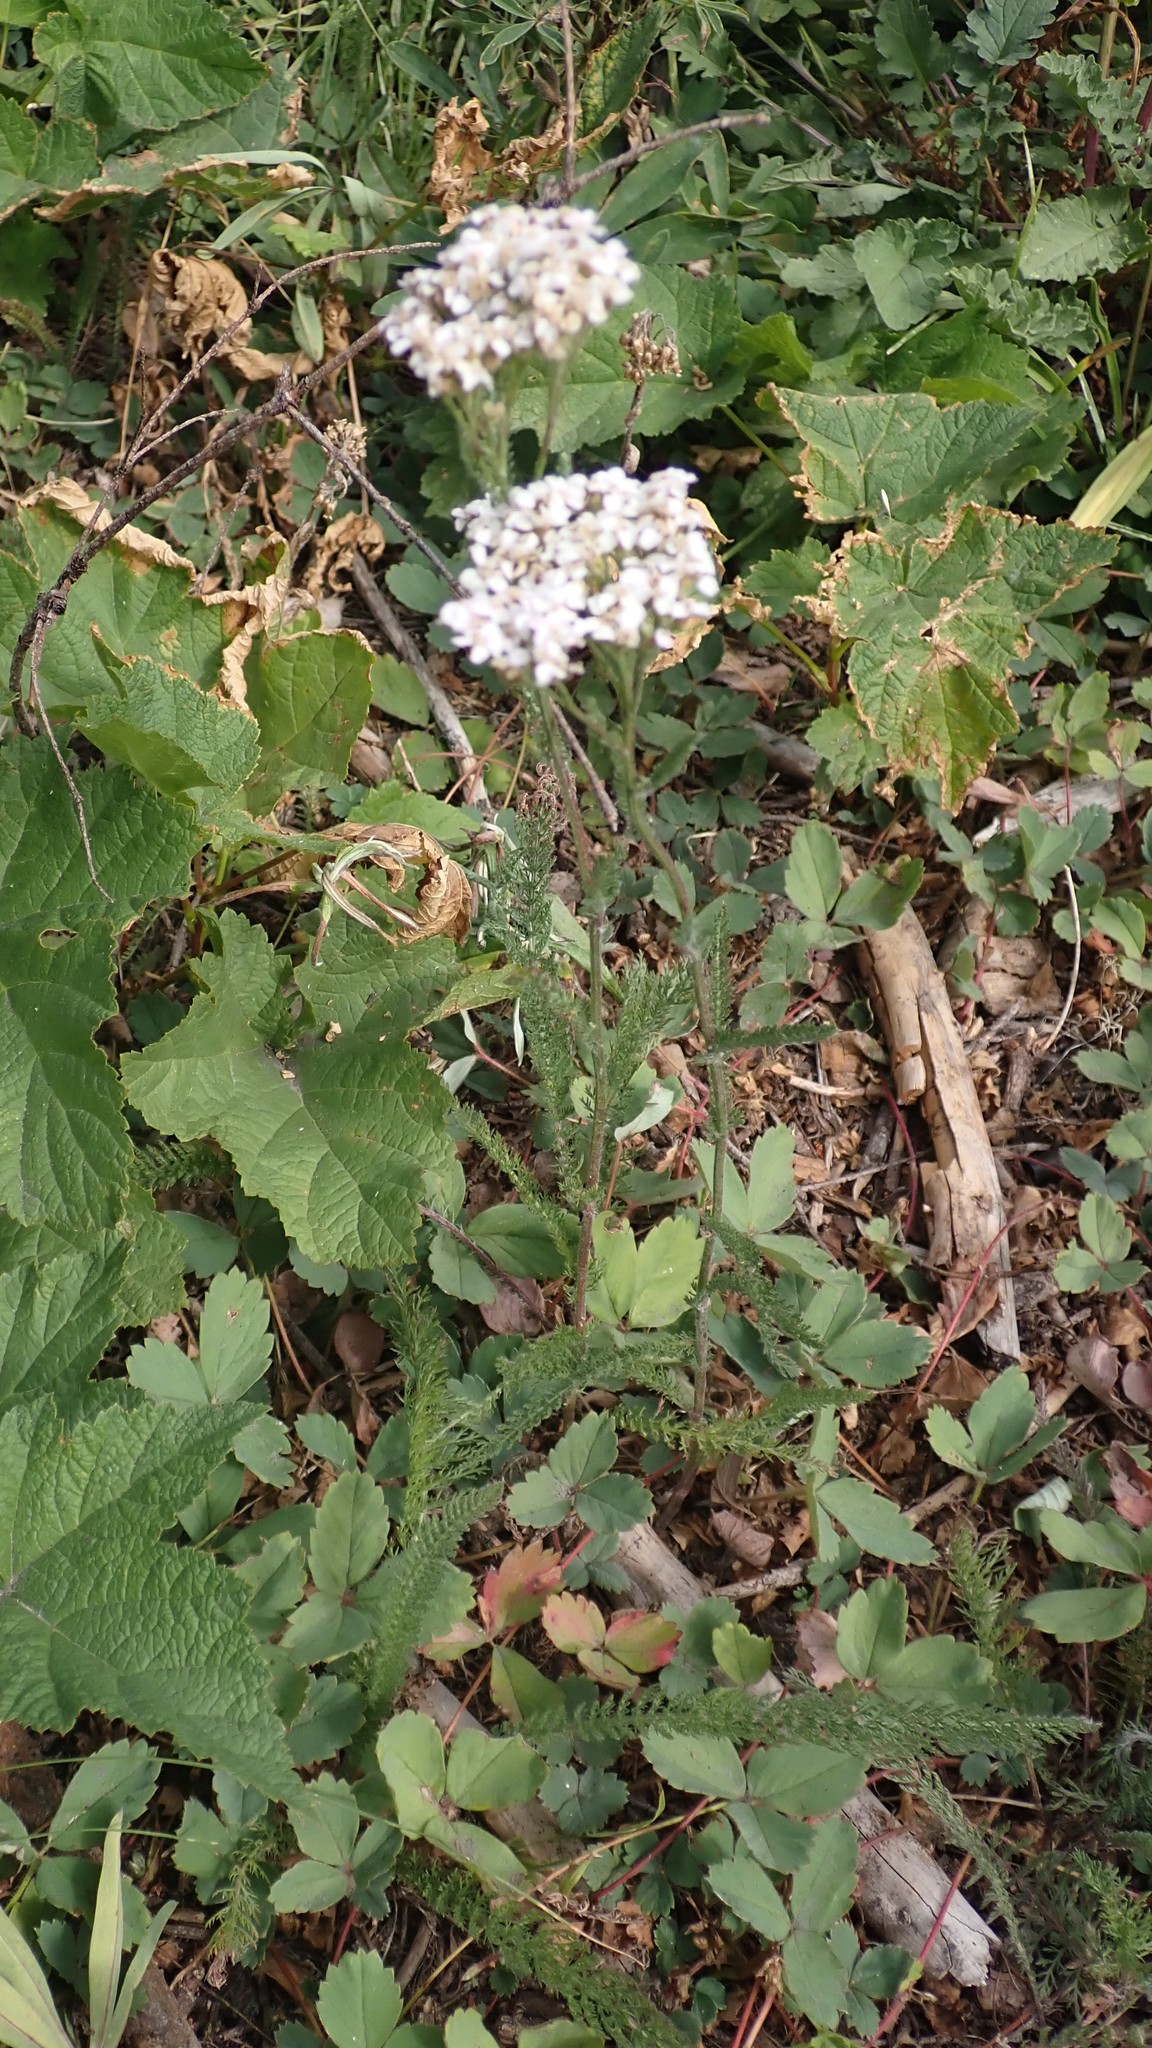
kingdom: Plantae
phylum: Tracheophyta
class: Magnoliopsida
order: Asterales
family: Asteraceae
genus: Achillea
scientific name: Achillea millefolium
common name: Yarrow
